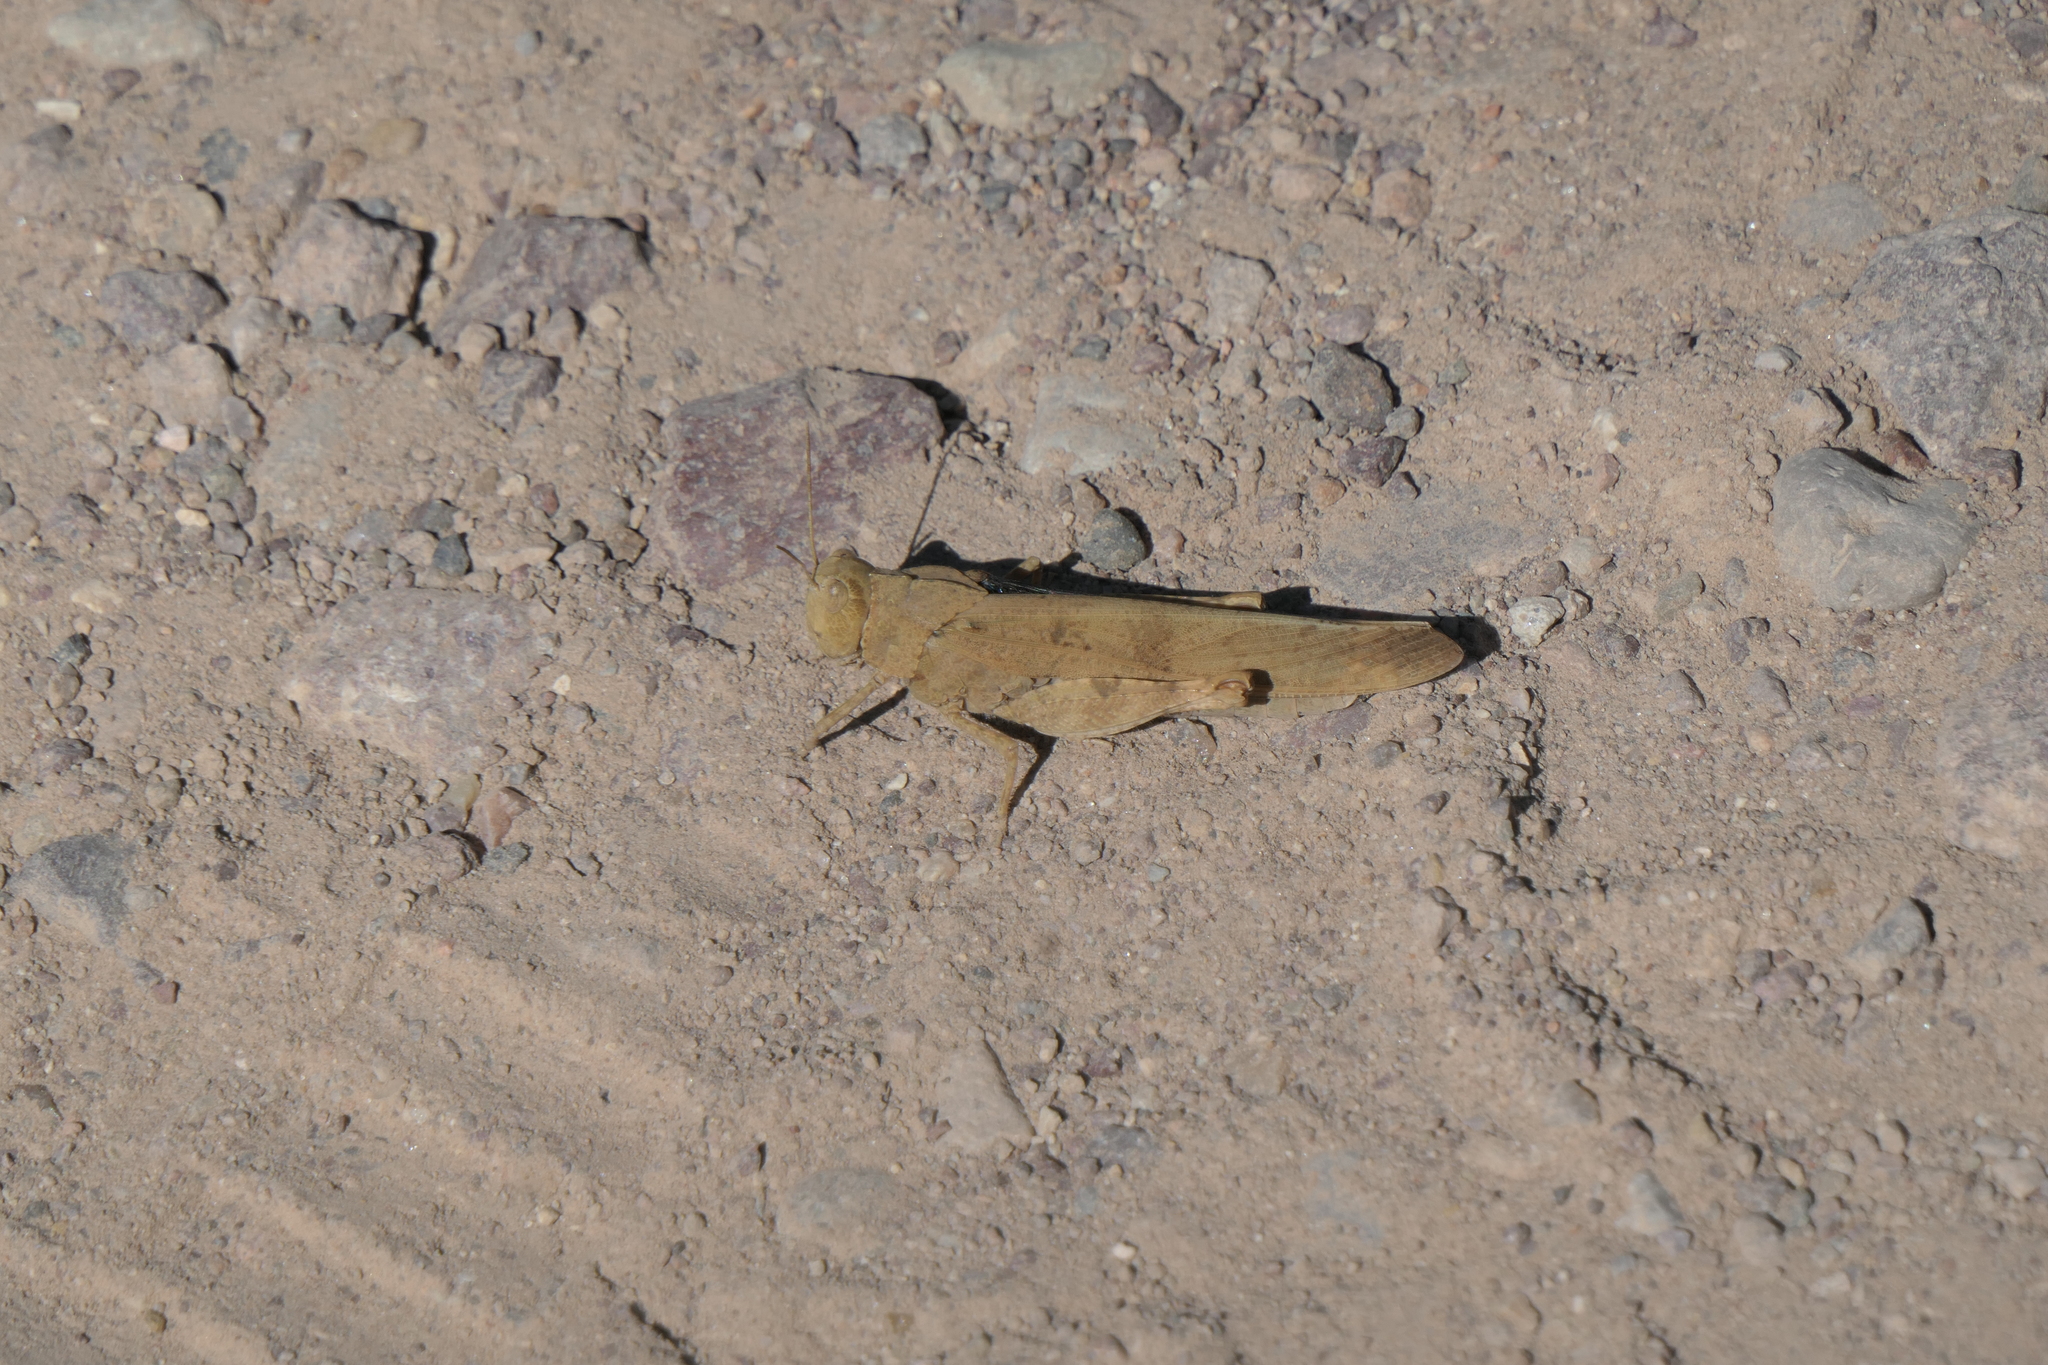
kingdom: Animalia
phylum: Arthropoda
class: Insecta
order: Orthoptera
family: Acrididae
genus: Dissosteira
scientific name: Dissosteira carolina
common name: Carolina grasshopper
